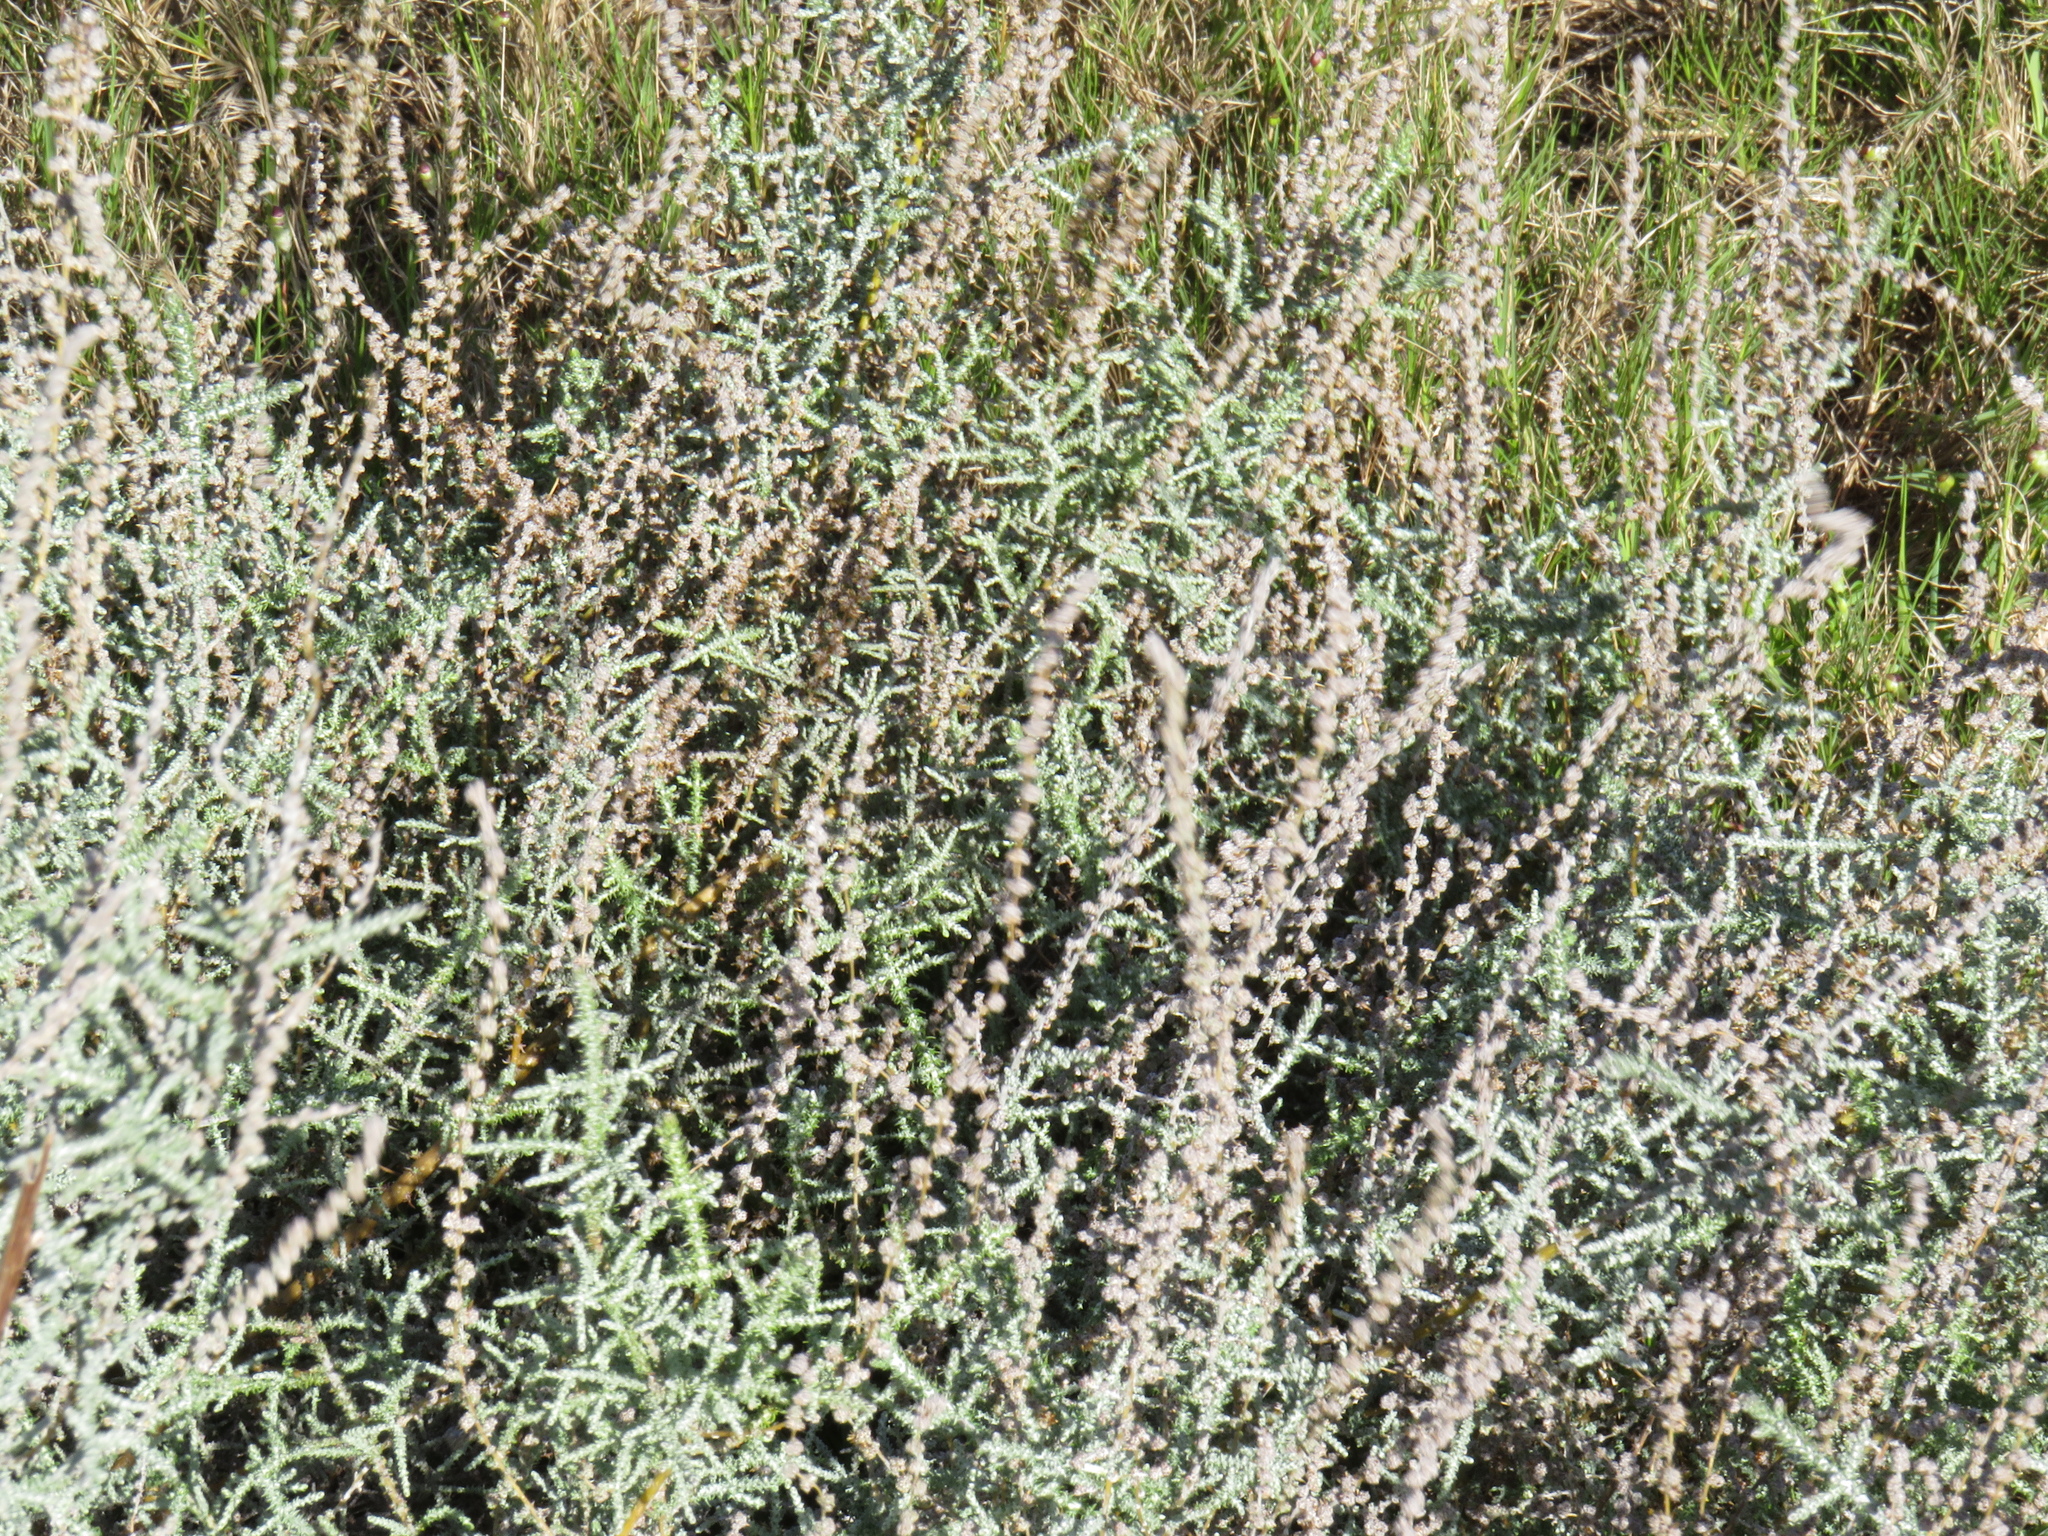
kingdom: Plantae
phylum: Tracheophyta
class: Magnoliopsida
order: Asterales
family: Asteraceae
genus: Seriphium
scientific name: Seriphium plumosum
